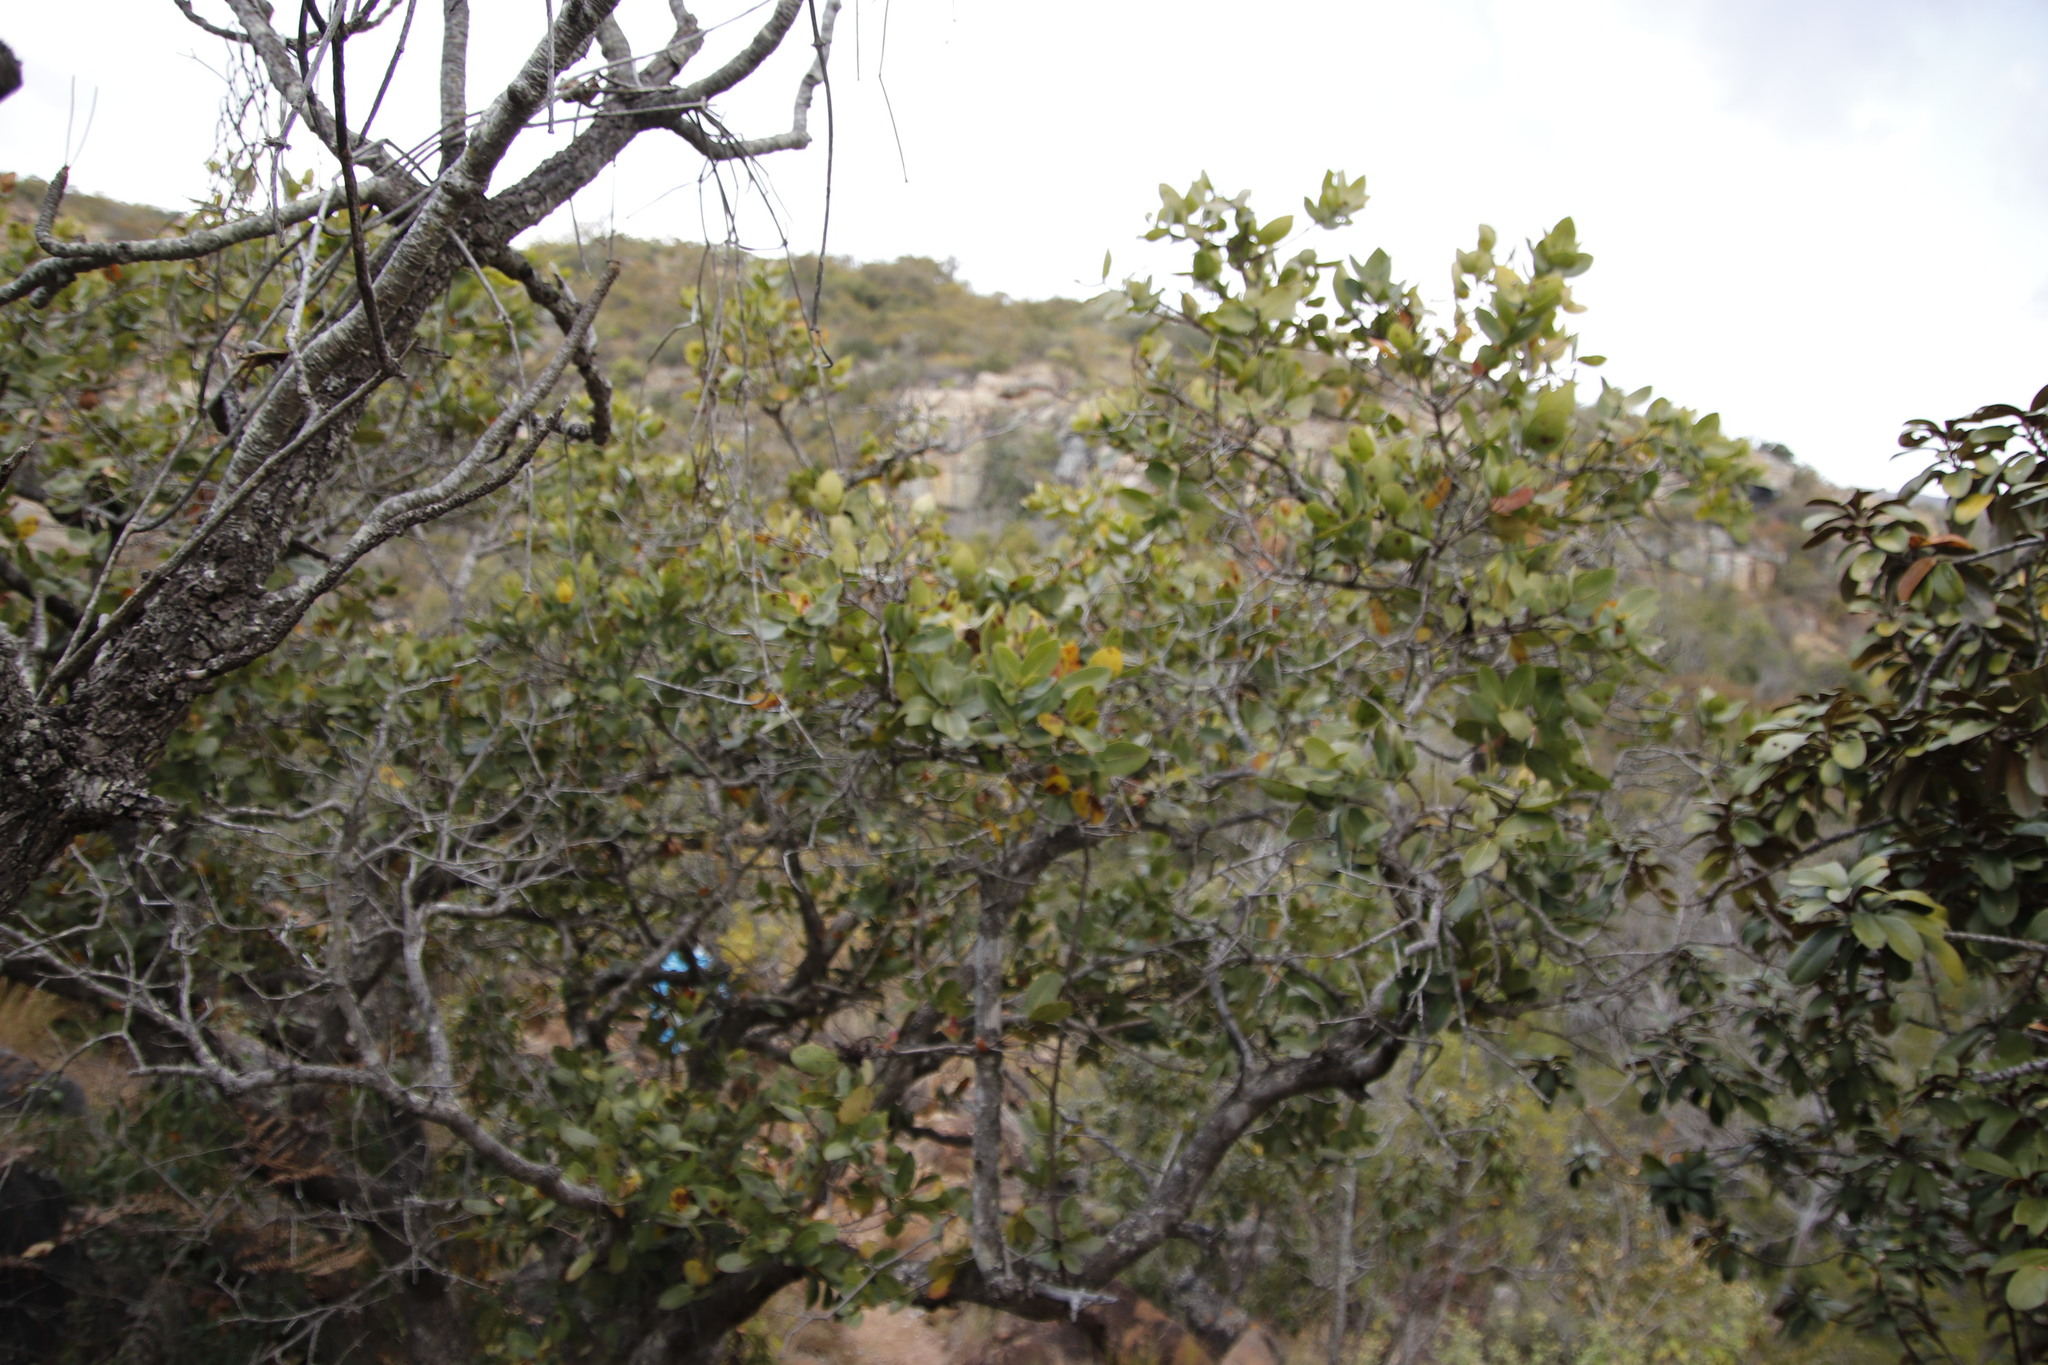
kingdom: Plantae
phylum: Tracheophyta
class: Magnoliopsida
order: Myrtales
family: Myrtaceae
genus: Syzygium
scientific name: Syzygium cordatum
